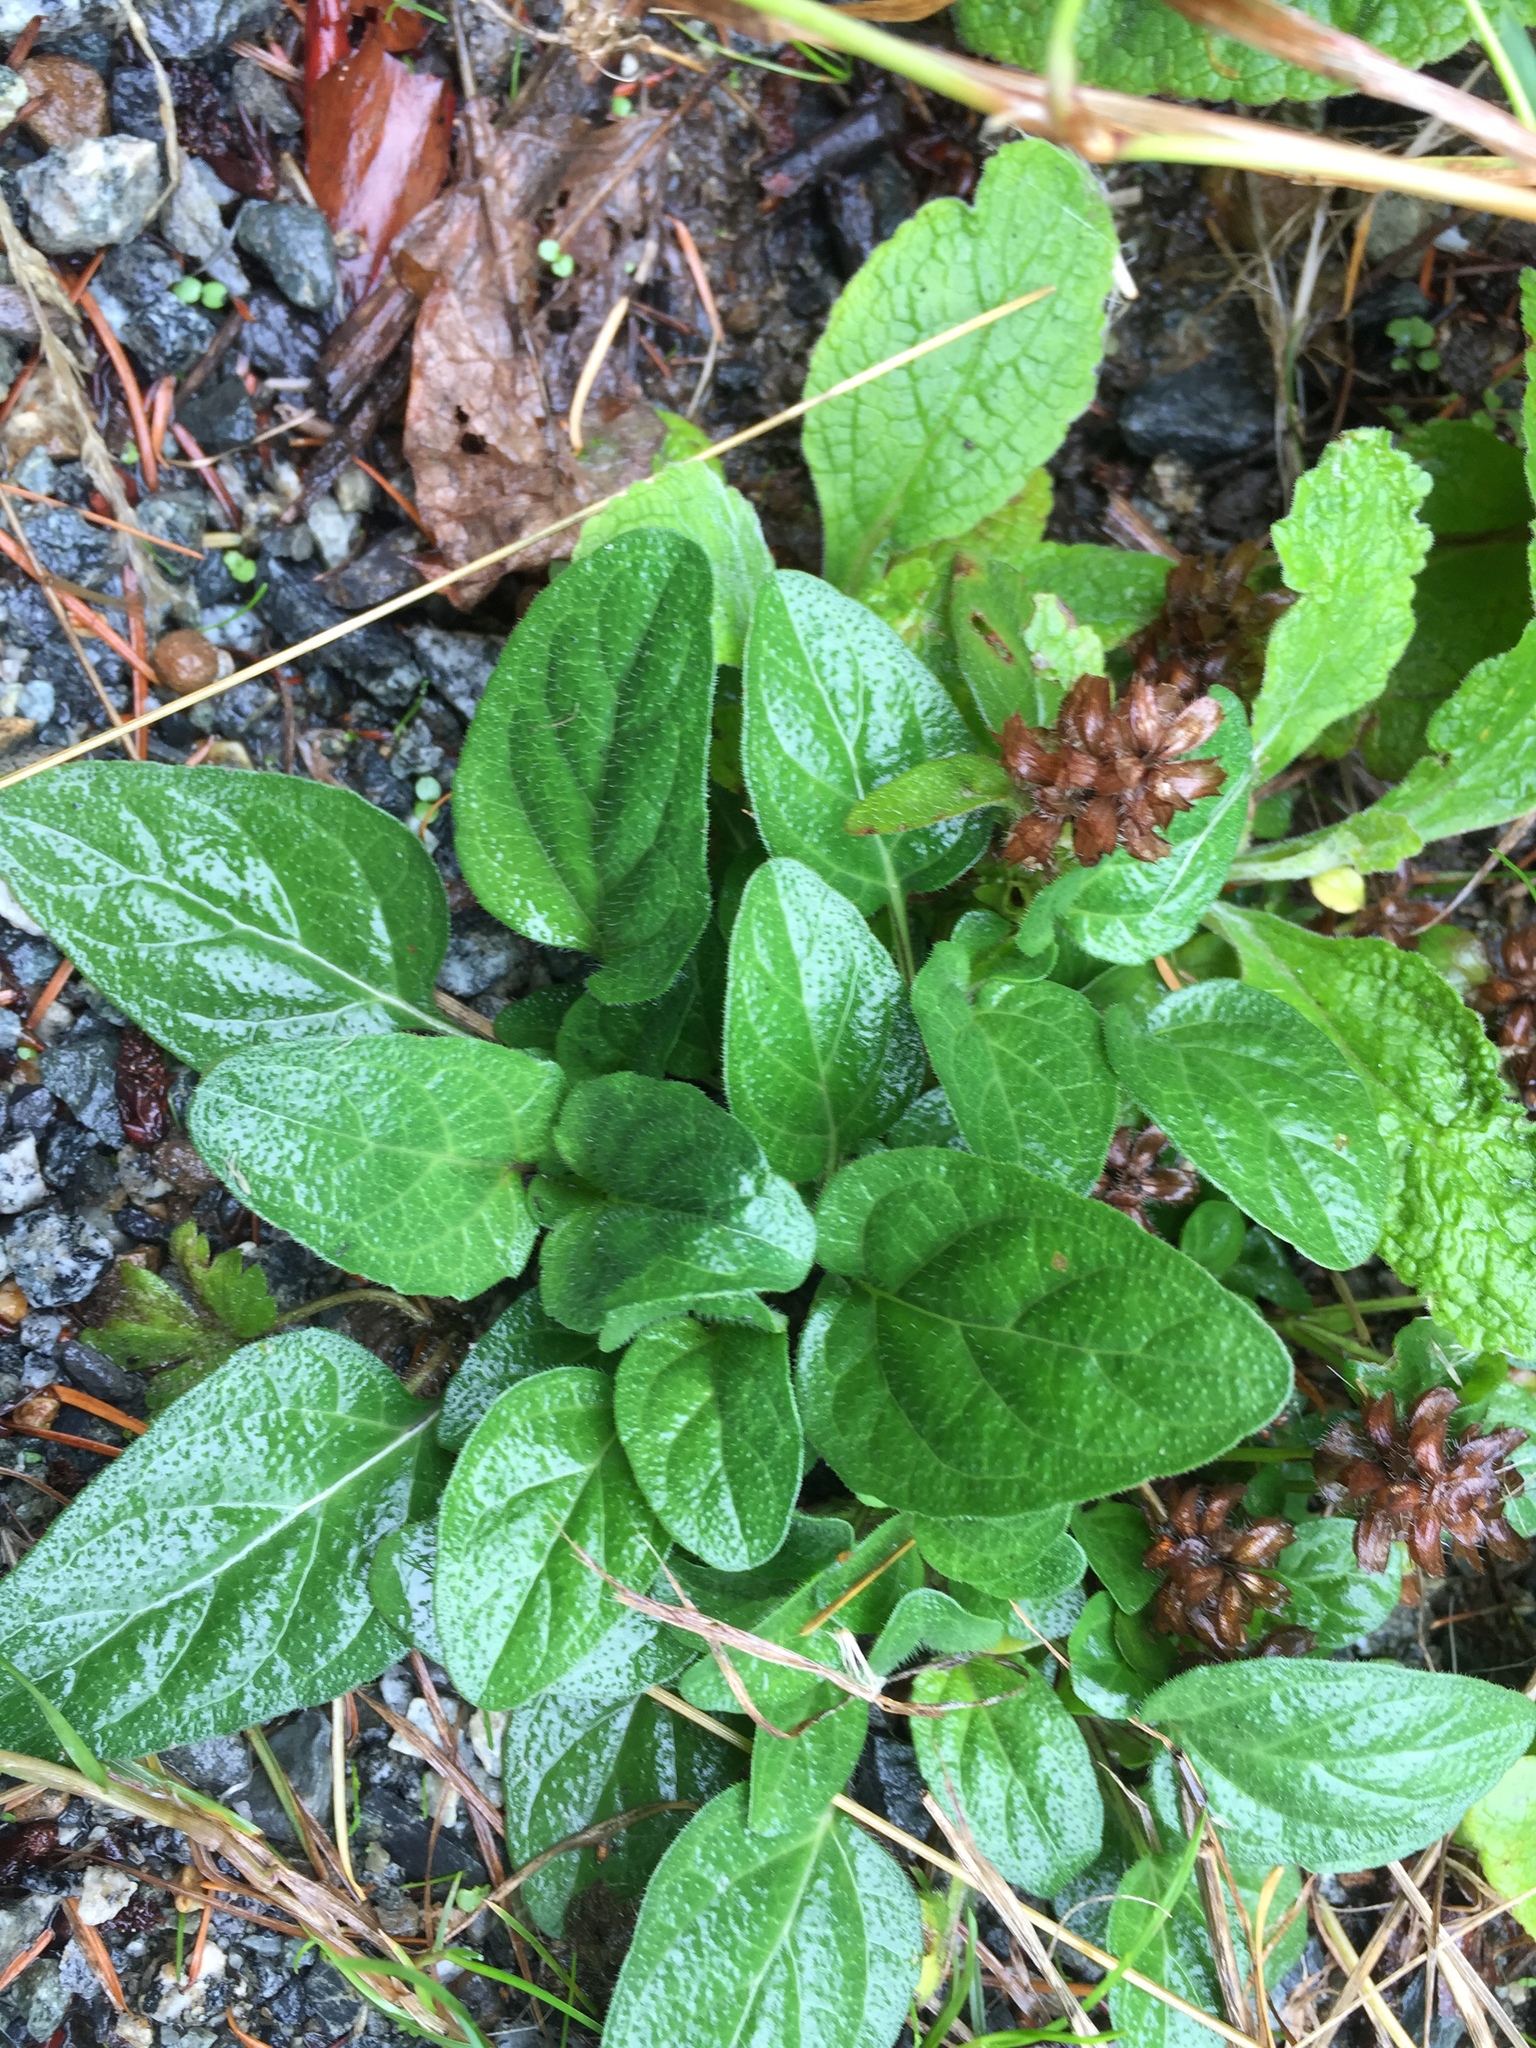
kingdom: Plantae
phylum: Tracheophyta
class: Magnoliopsida
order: Lamiales
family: Lamiaceae
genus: Prunella
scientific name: Prunella vulgaris
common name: Heal-all
